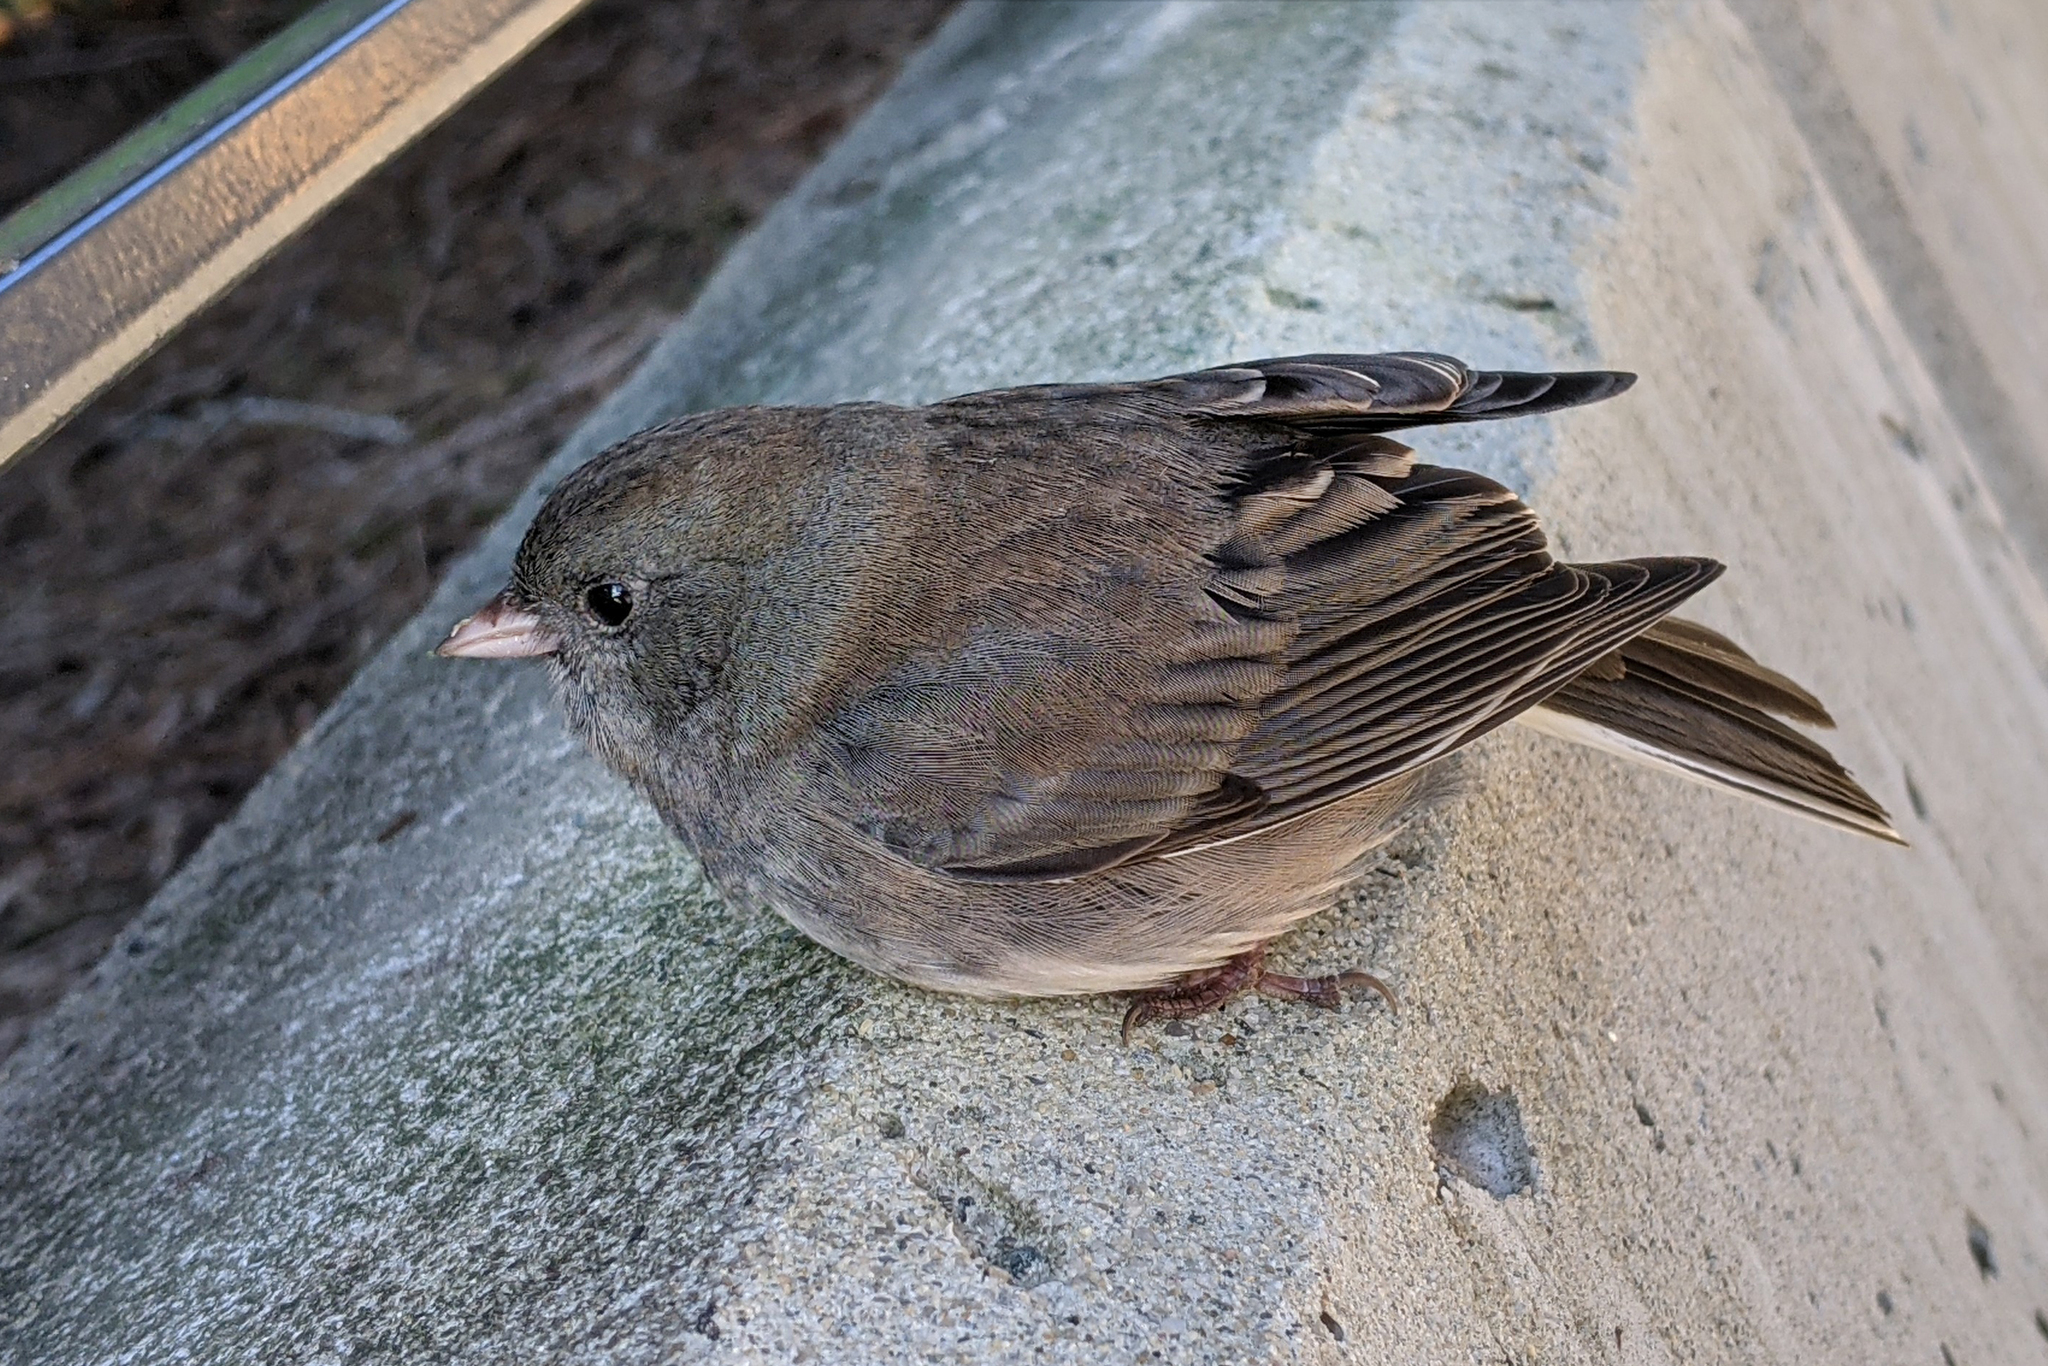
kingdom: Animalia
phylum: Chordata
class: Aves
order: Passeriformes
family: Passerellidae
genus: Junco
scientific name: Junco hyemalis
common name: Dark-eyed junco
